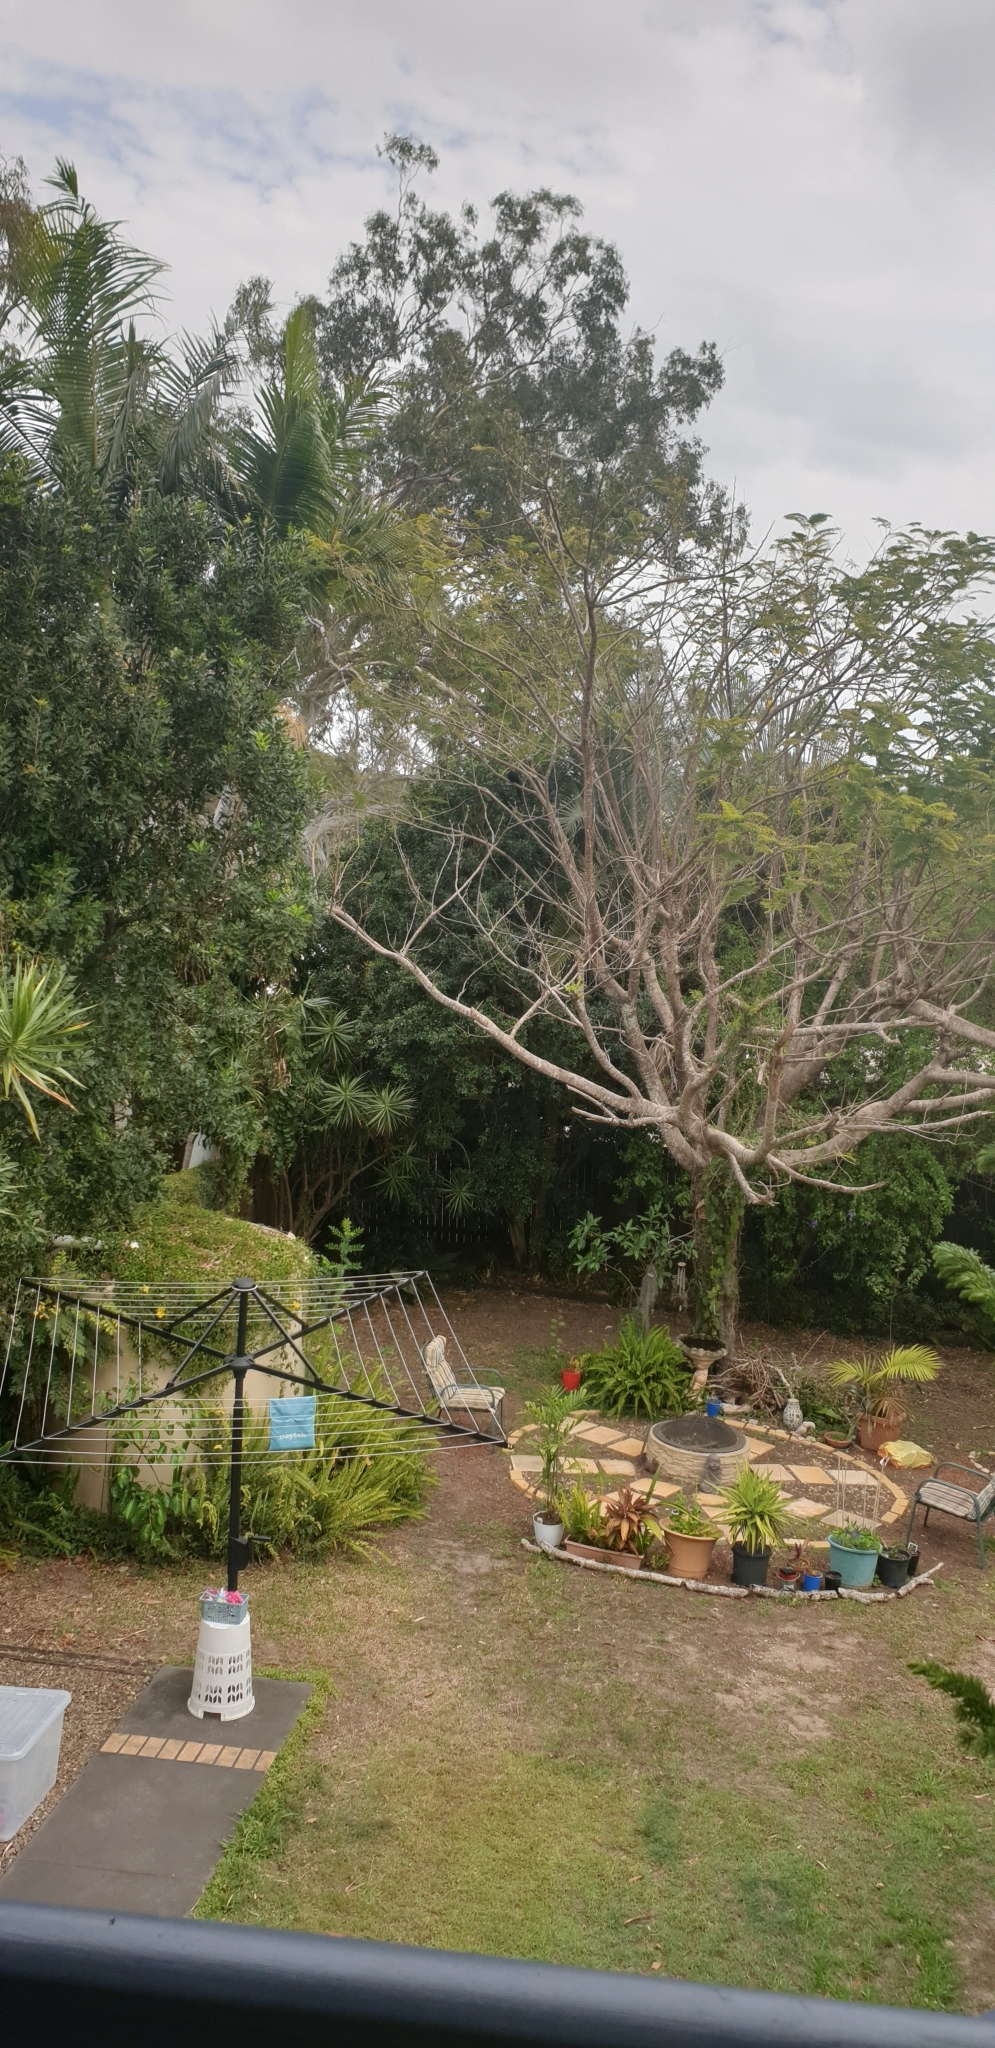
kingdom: Animalia
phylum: Chordata
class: Aves
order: Cuculiformes
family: Cuculidae
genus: Eudynamys
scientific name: Eudynamys orientalis
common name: Pacific koel
